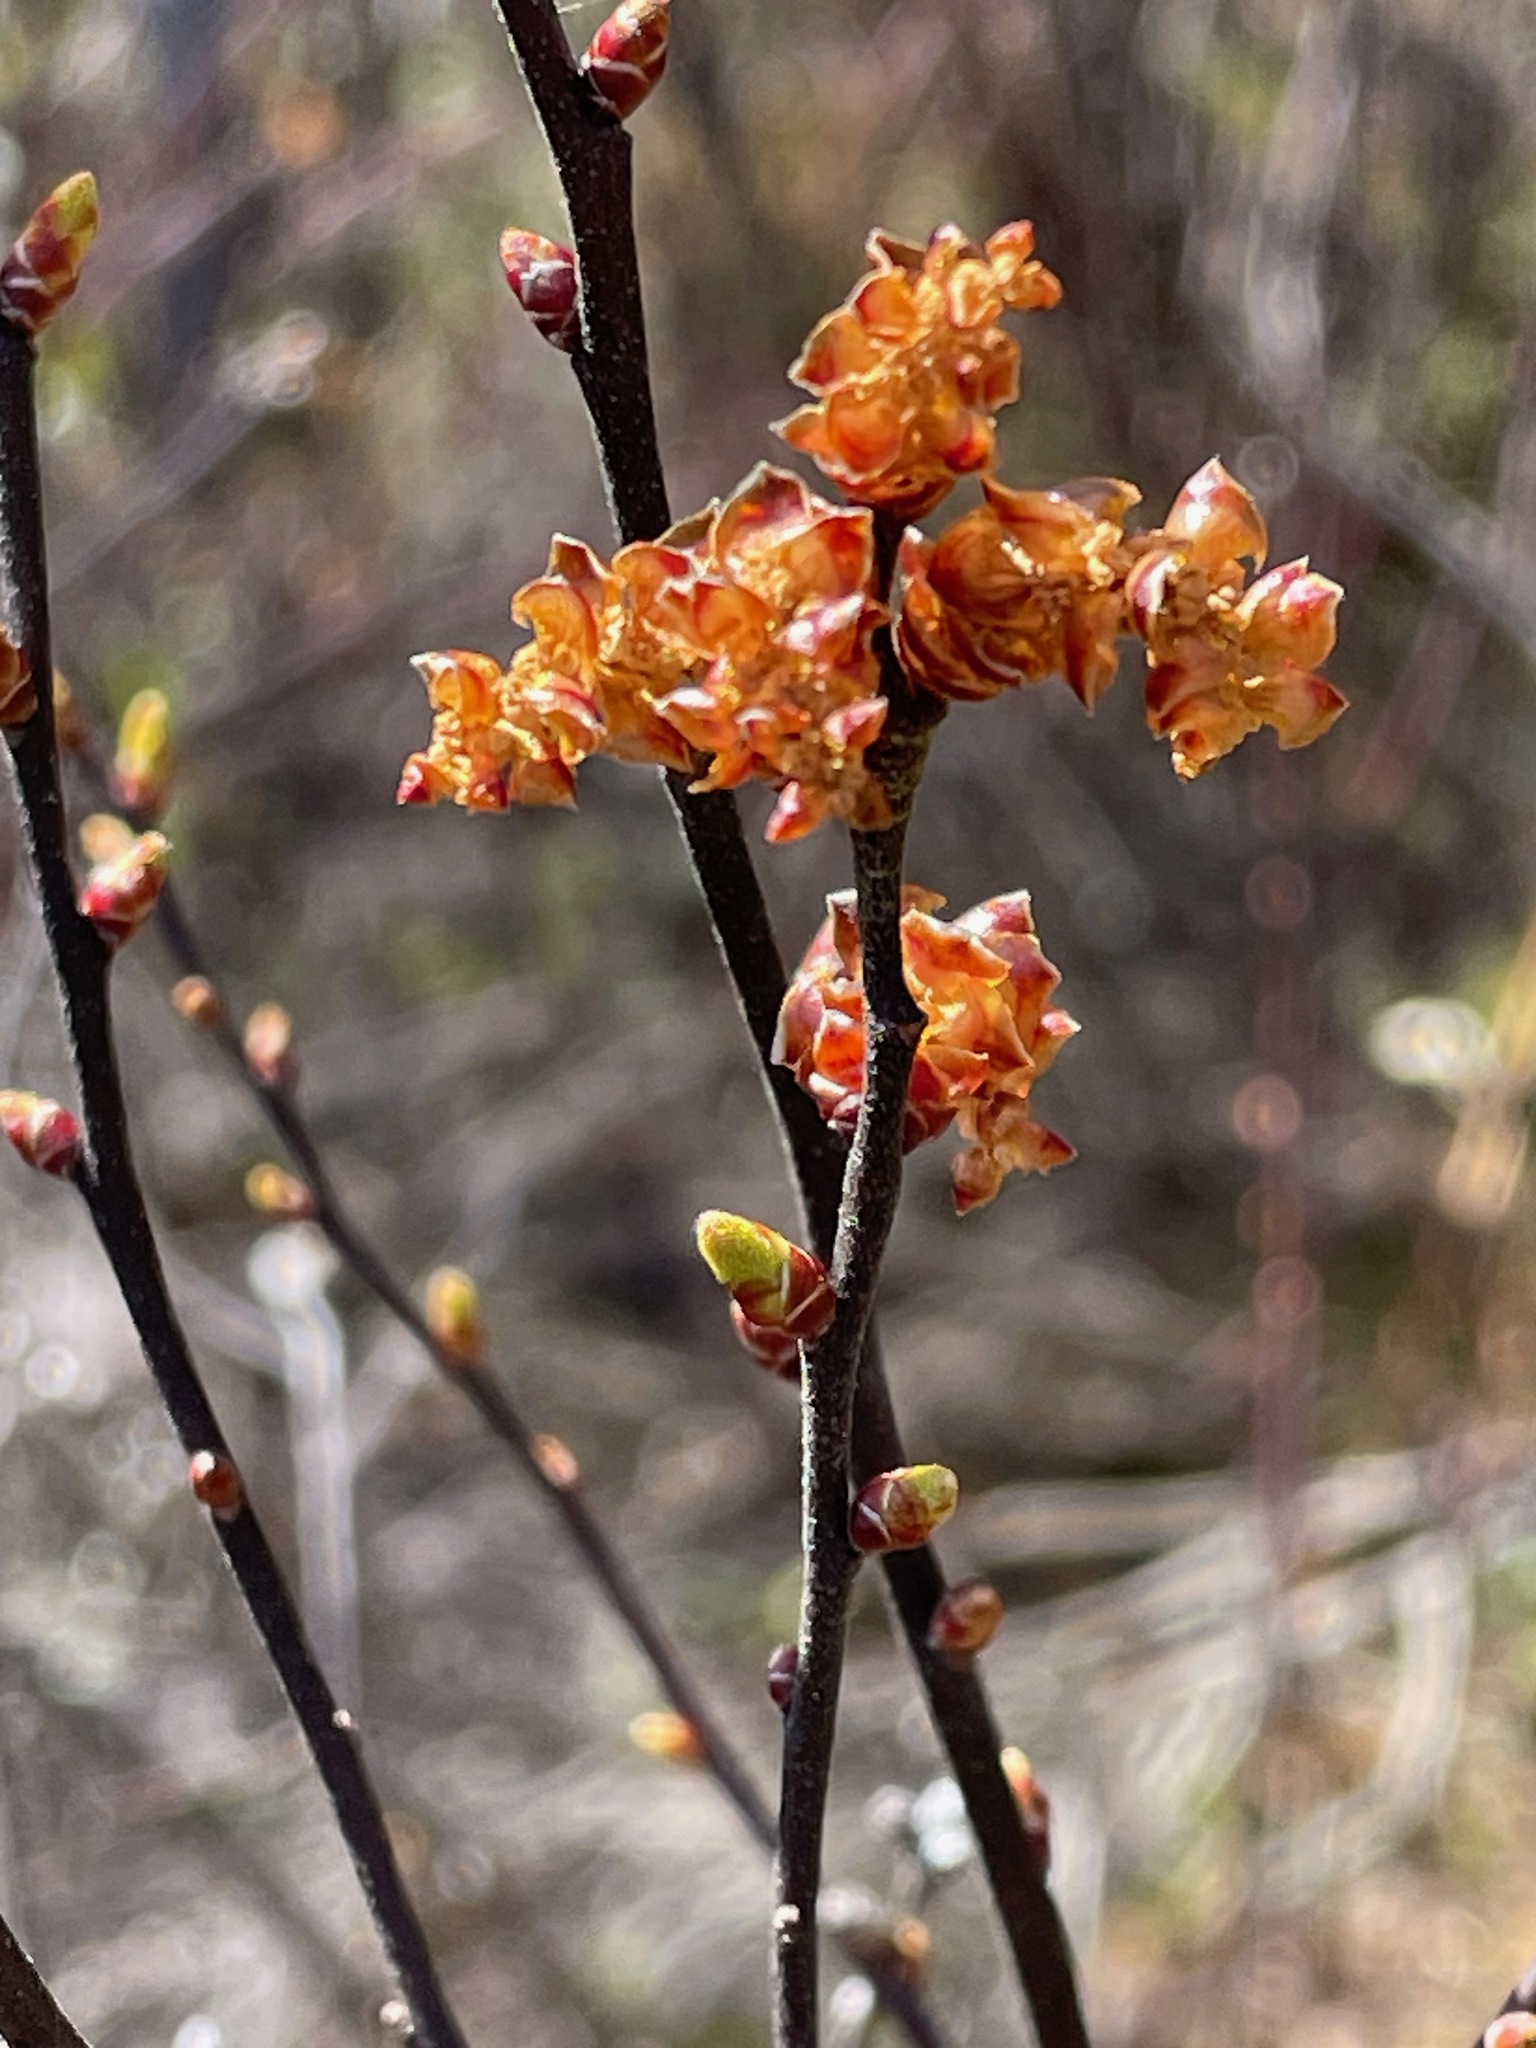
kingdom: Plantae
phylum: Tracheophyta
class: Magnoliopsida
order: Fagales
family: Myricaceae
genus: Myrica
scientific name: Myrica gale
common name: Sweet gale
